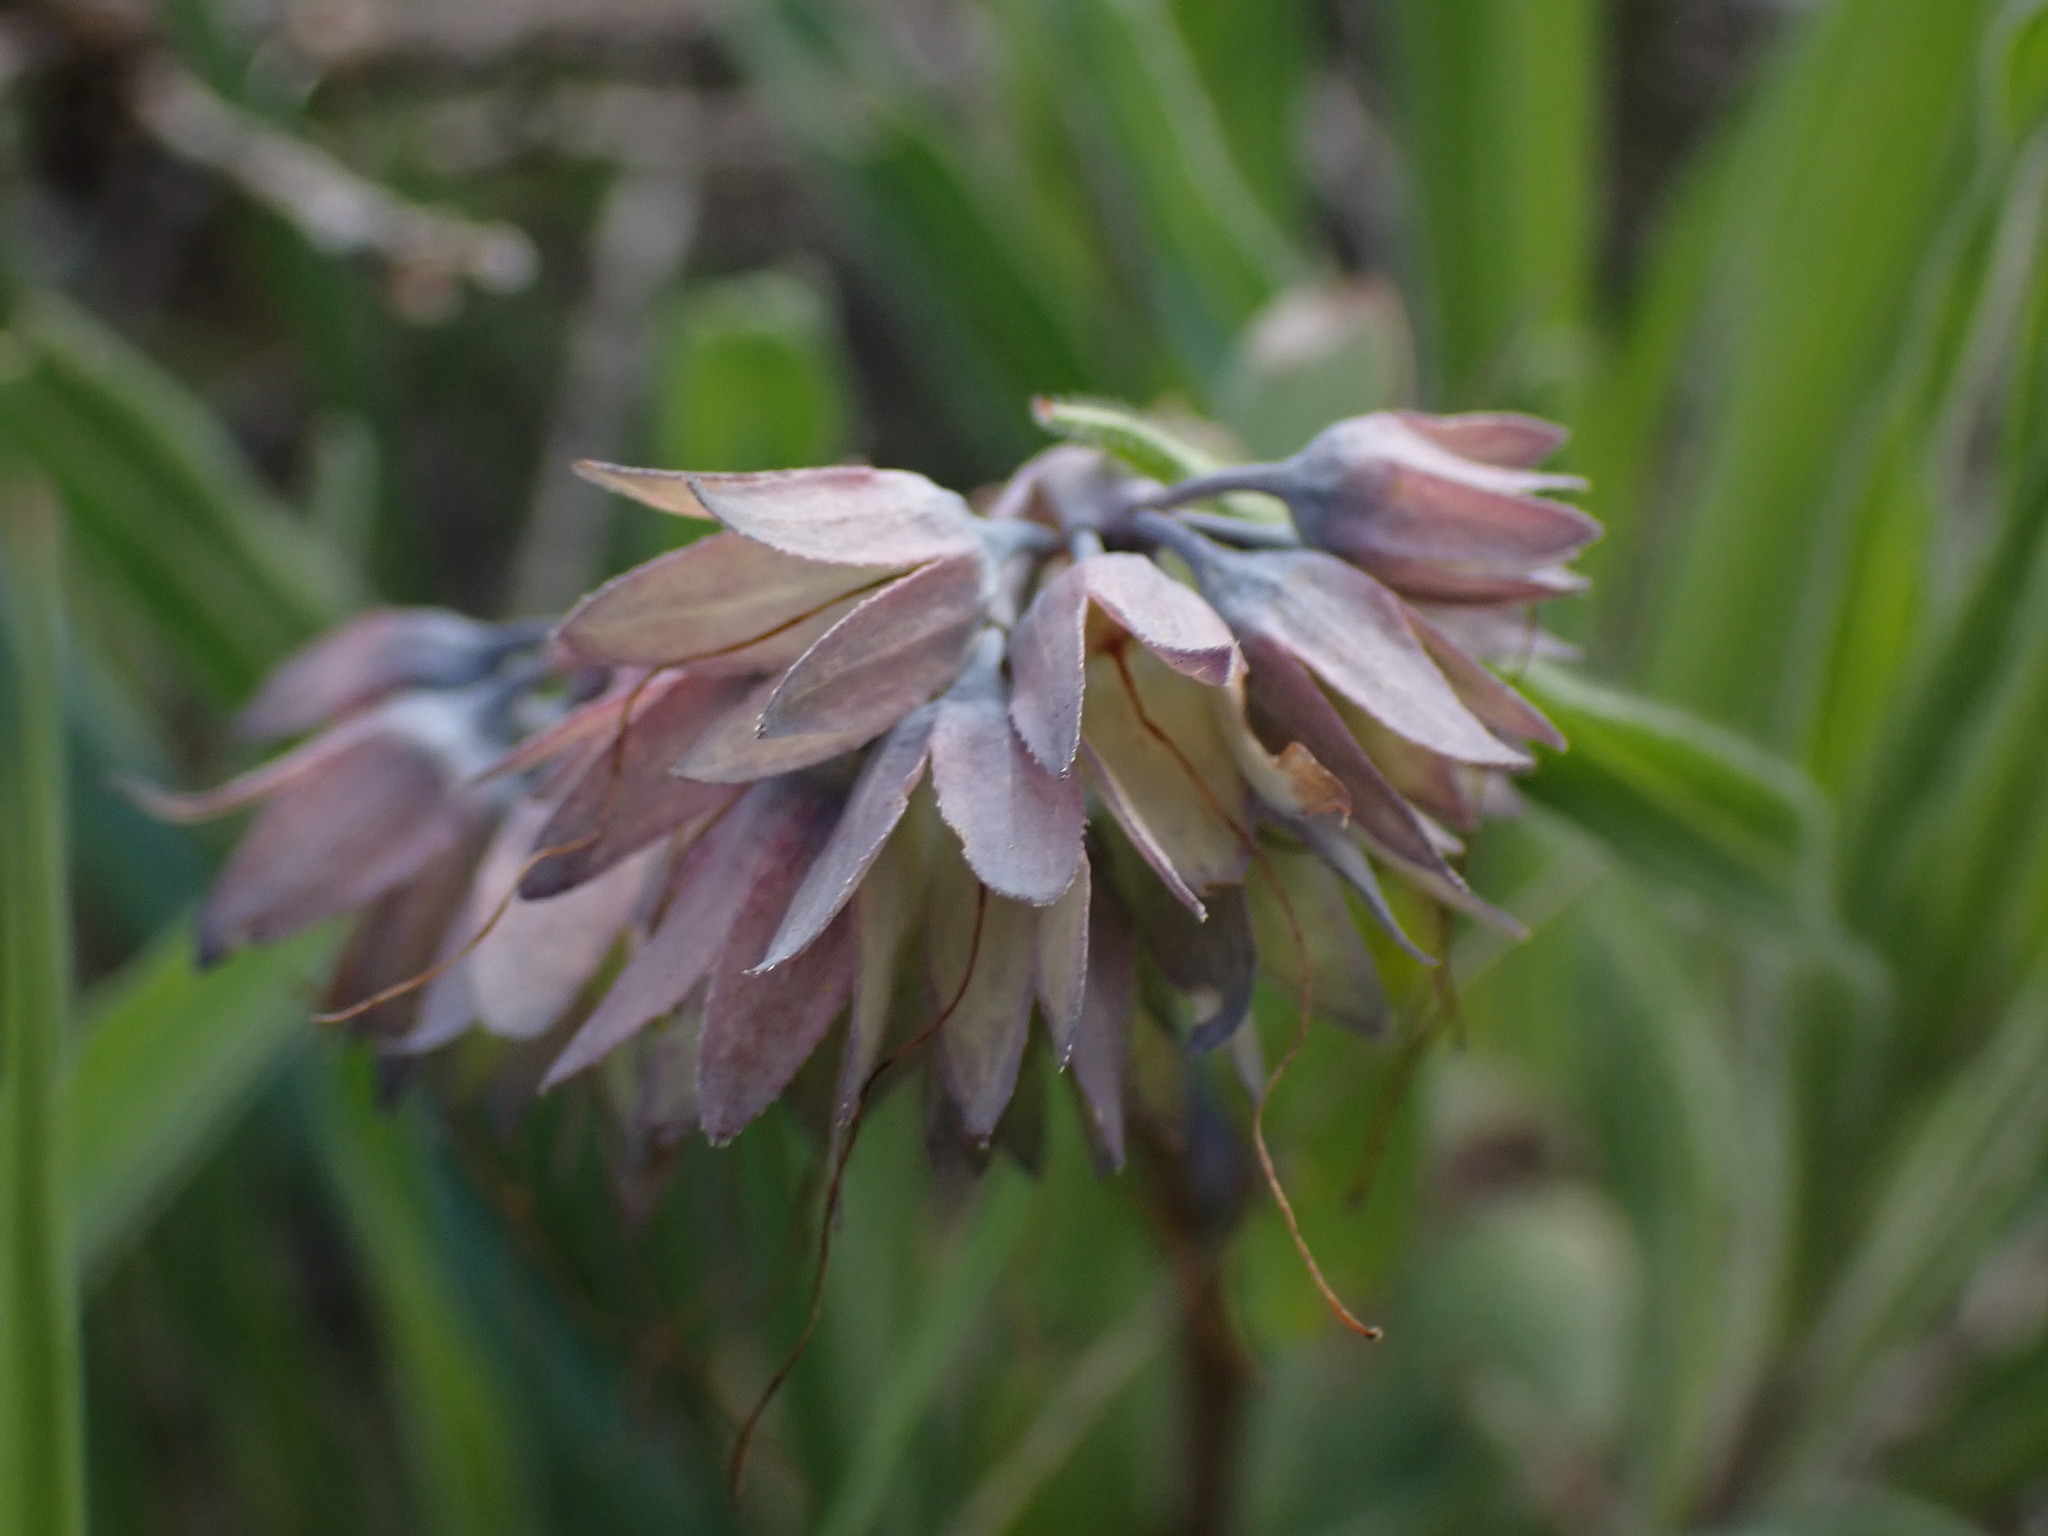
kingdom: Plantae
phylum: Tracheophyta
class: Magnoliopsida
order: Boraginales
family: Boraginaceae
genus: Mertensia
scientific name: Mertensia longiflora
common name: Large-flowered bluebells
